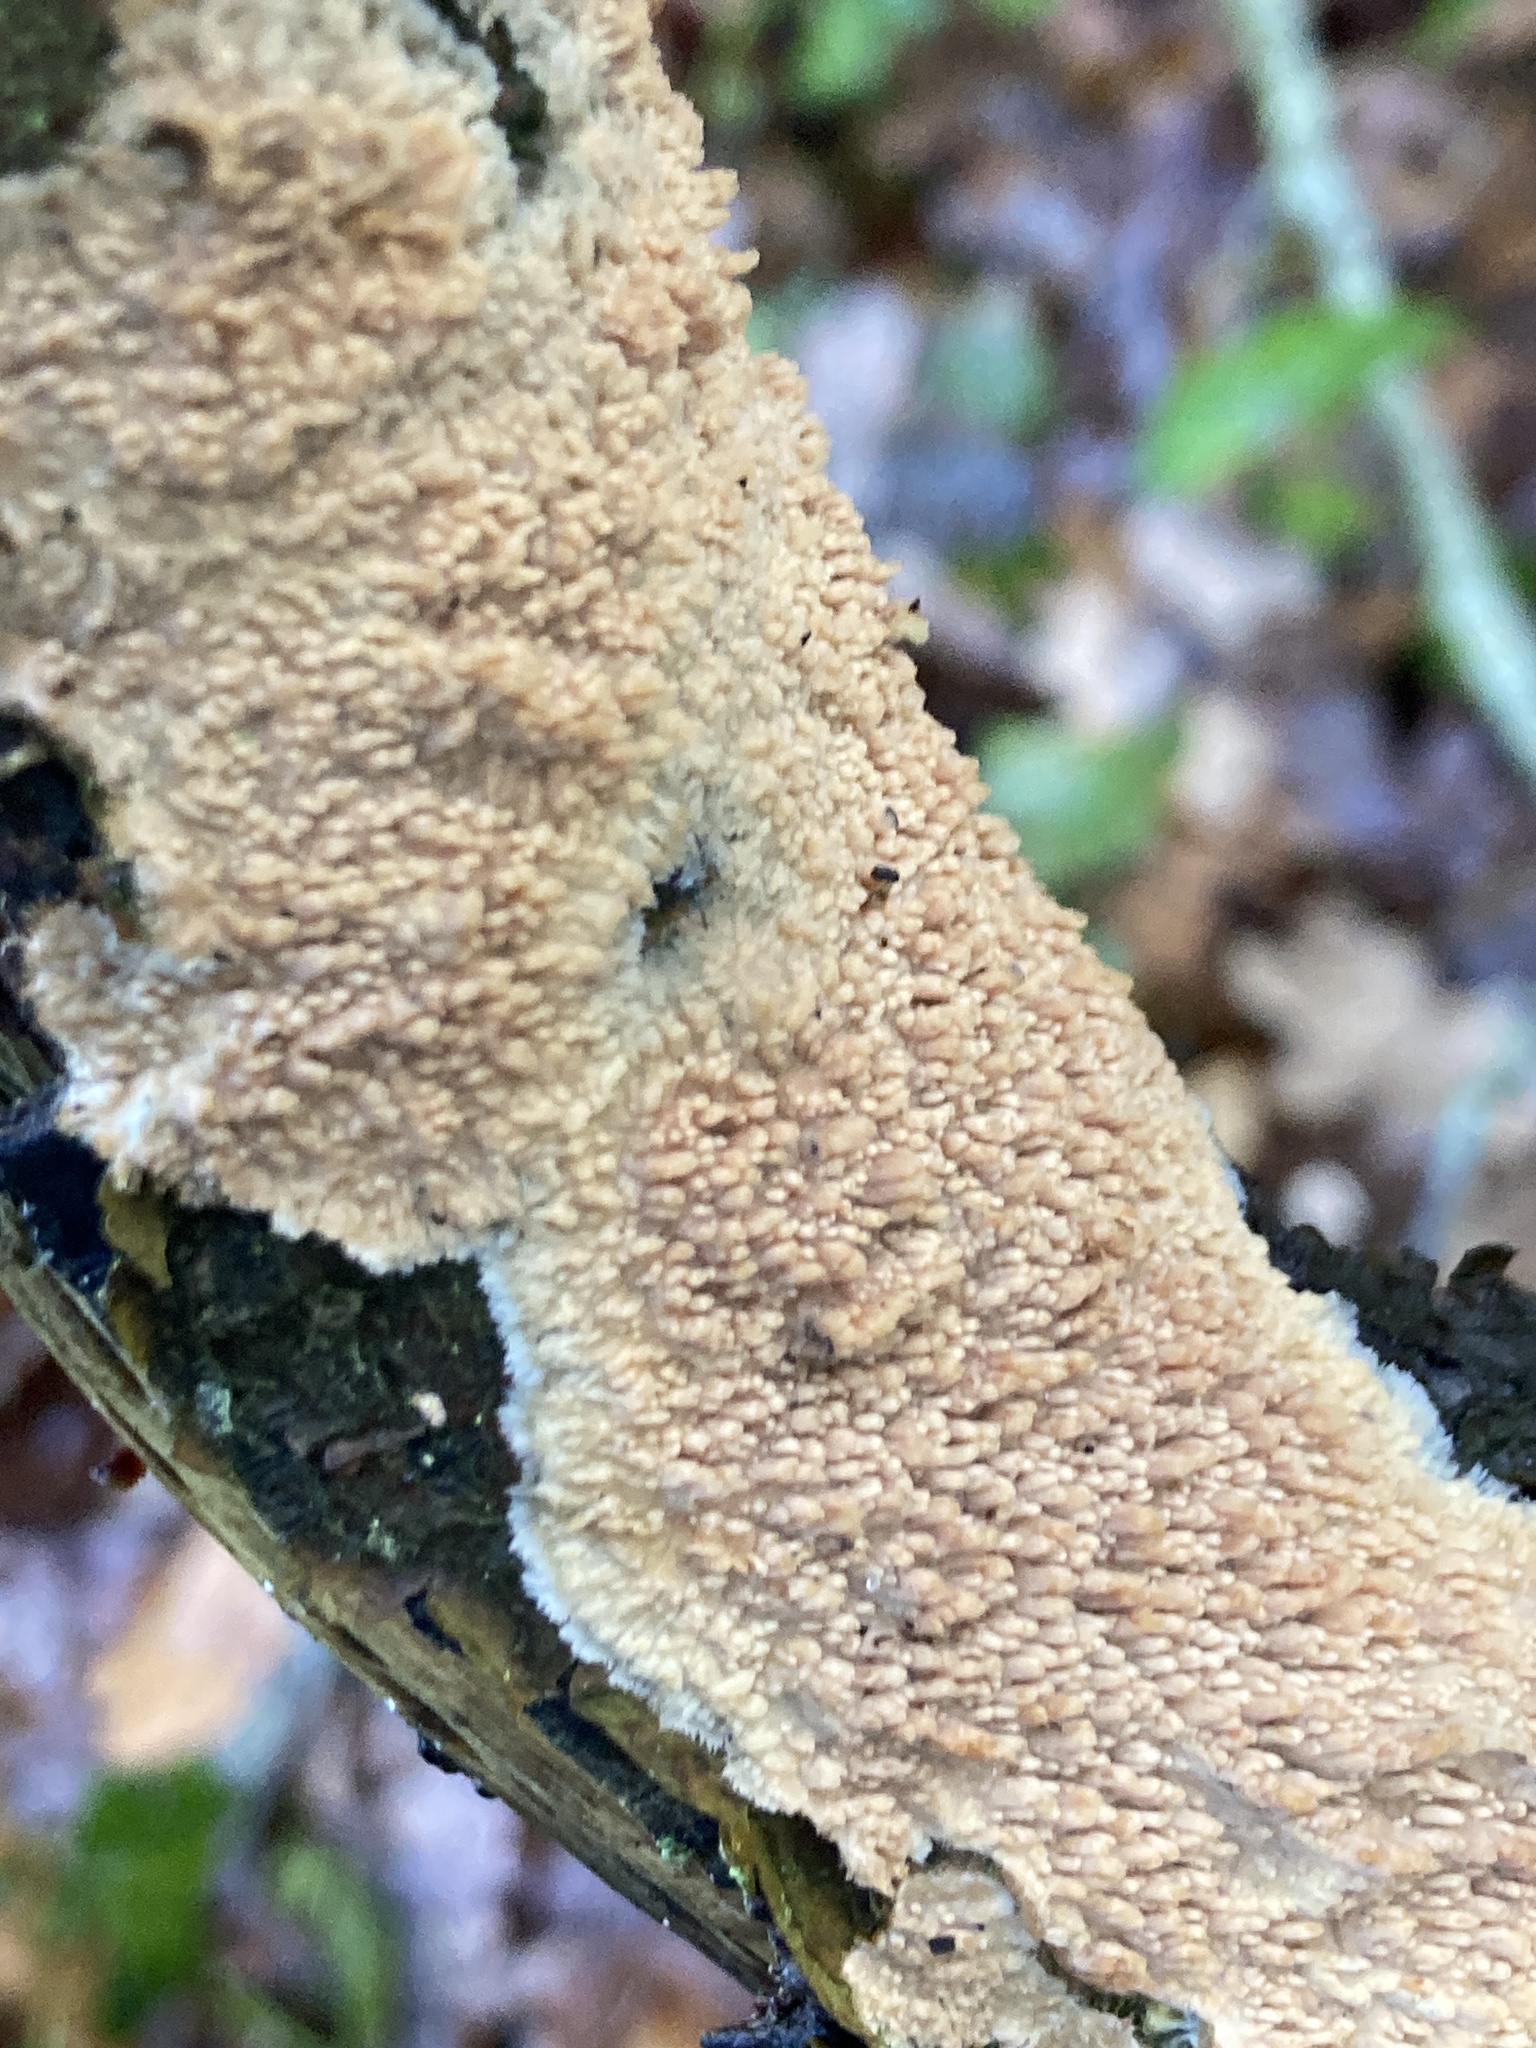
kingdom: Fungi
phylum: Basidiomycota
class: Agaricomycetes
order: Hymenochaetales
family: Schizoporaceae
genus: Xylodon
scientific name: Xylodon radula
